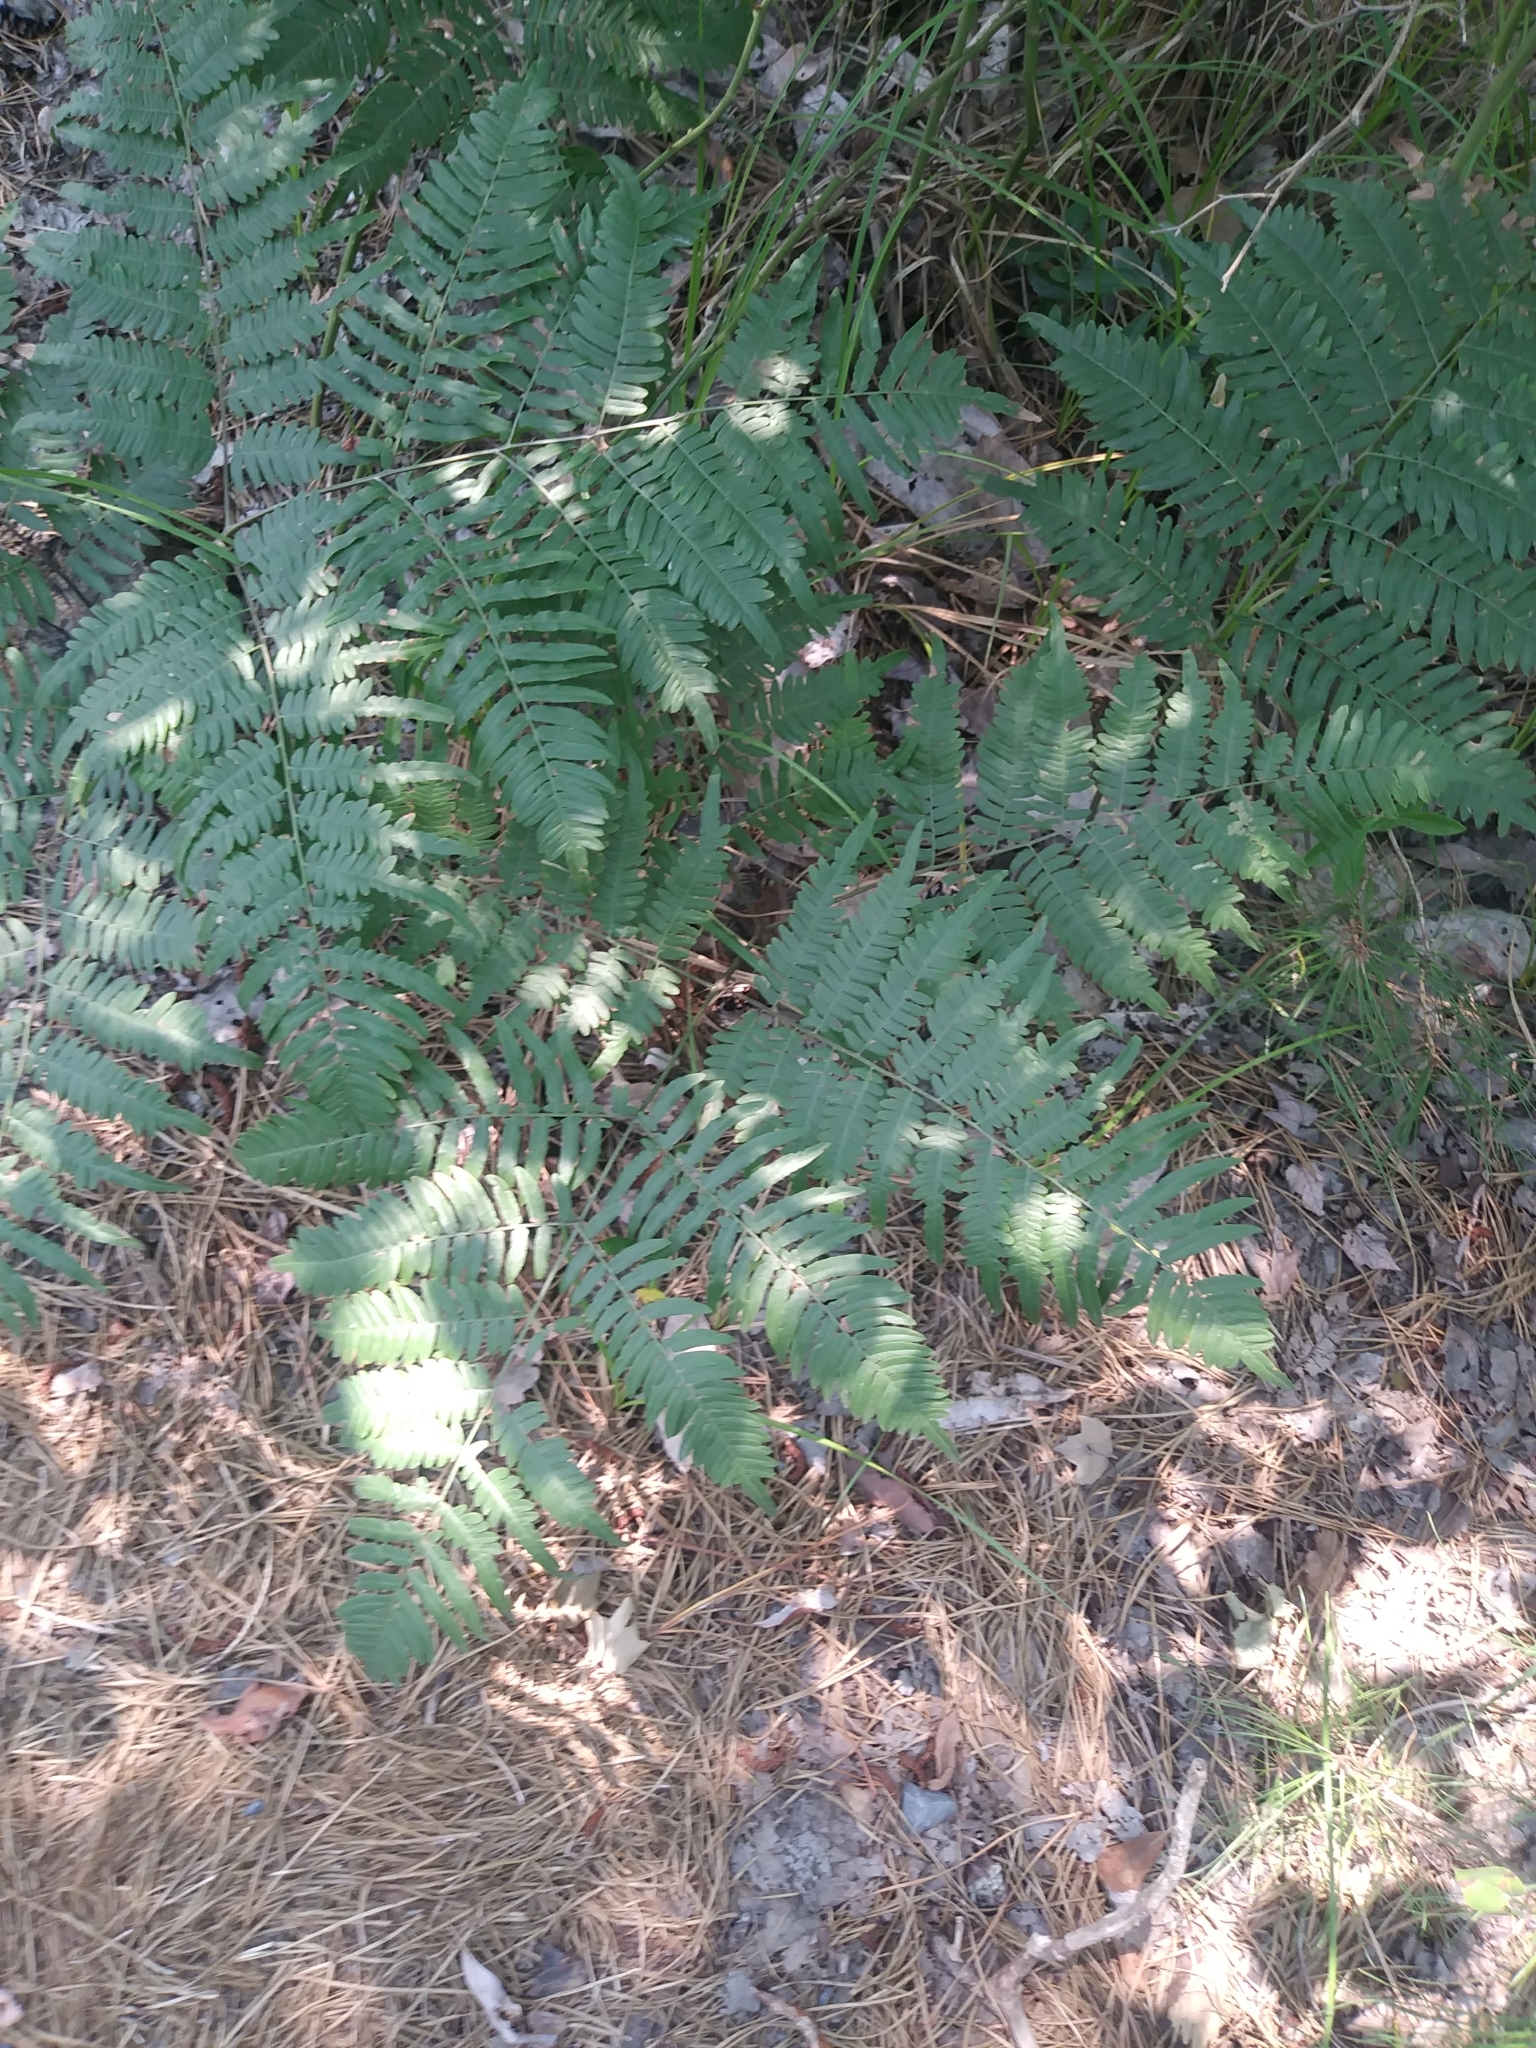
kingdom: Plantae
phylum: Tracheophyta
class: Polypodiopsida
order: Polypodiales
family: Dennstaedtiaceae
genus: Pteridium
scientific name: Pteridium aquilinum
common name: Bracken
